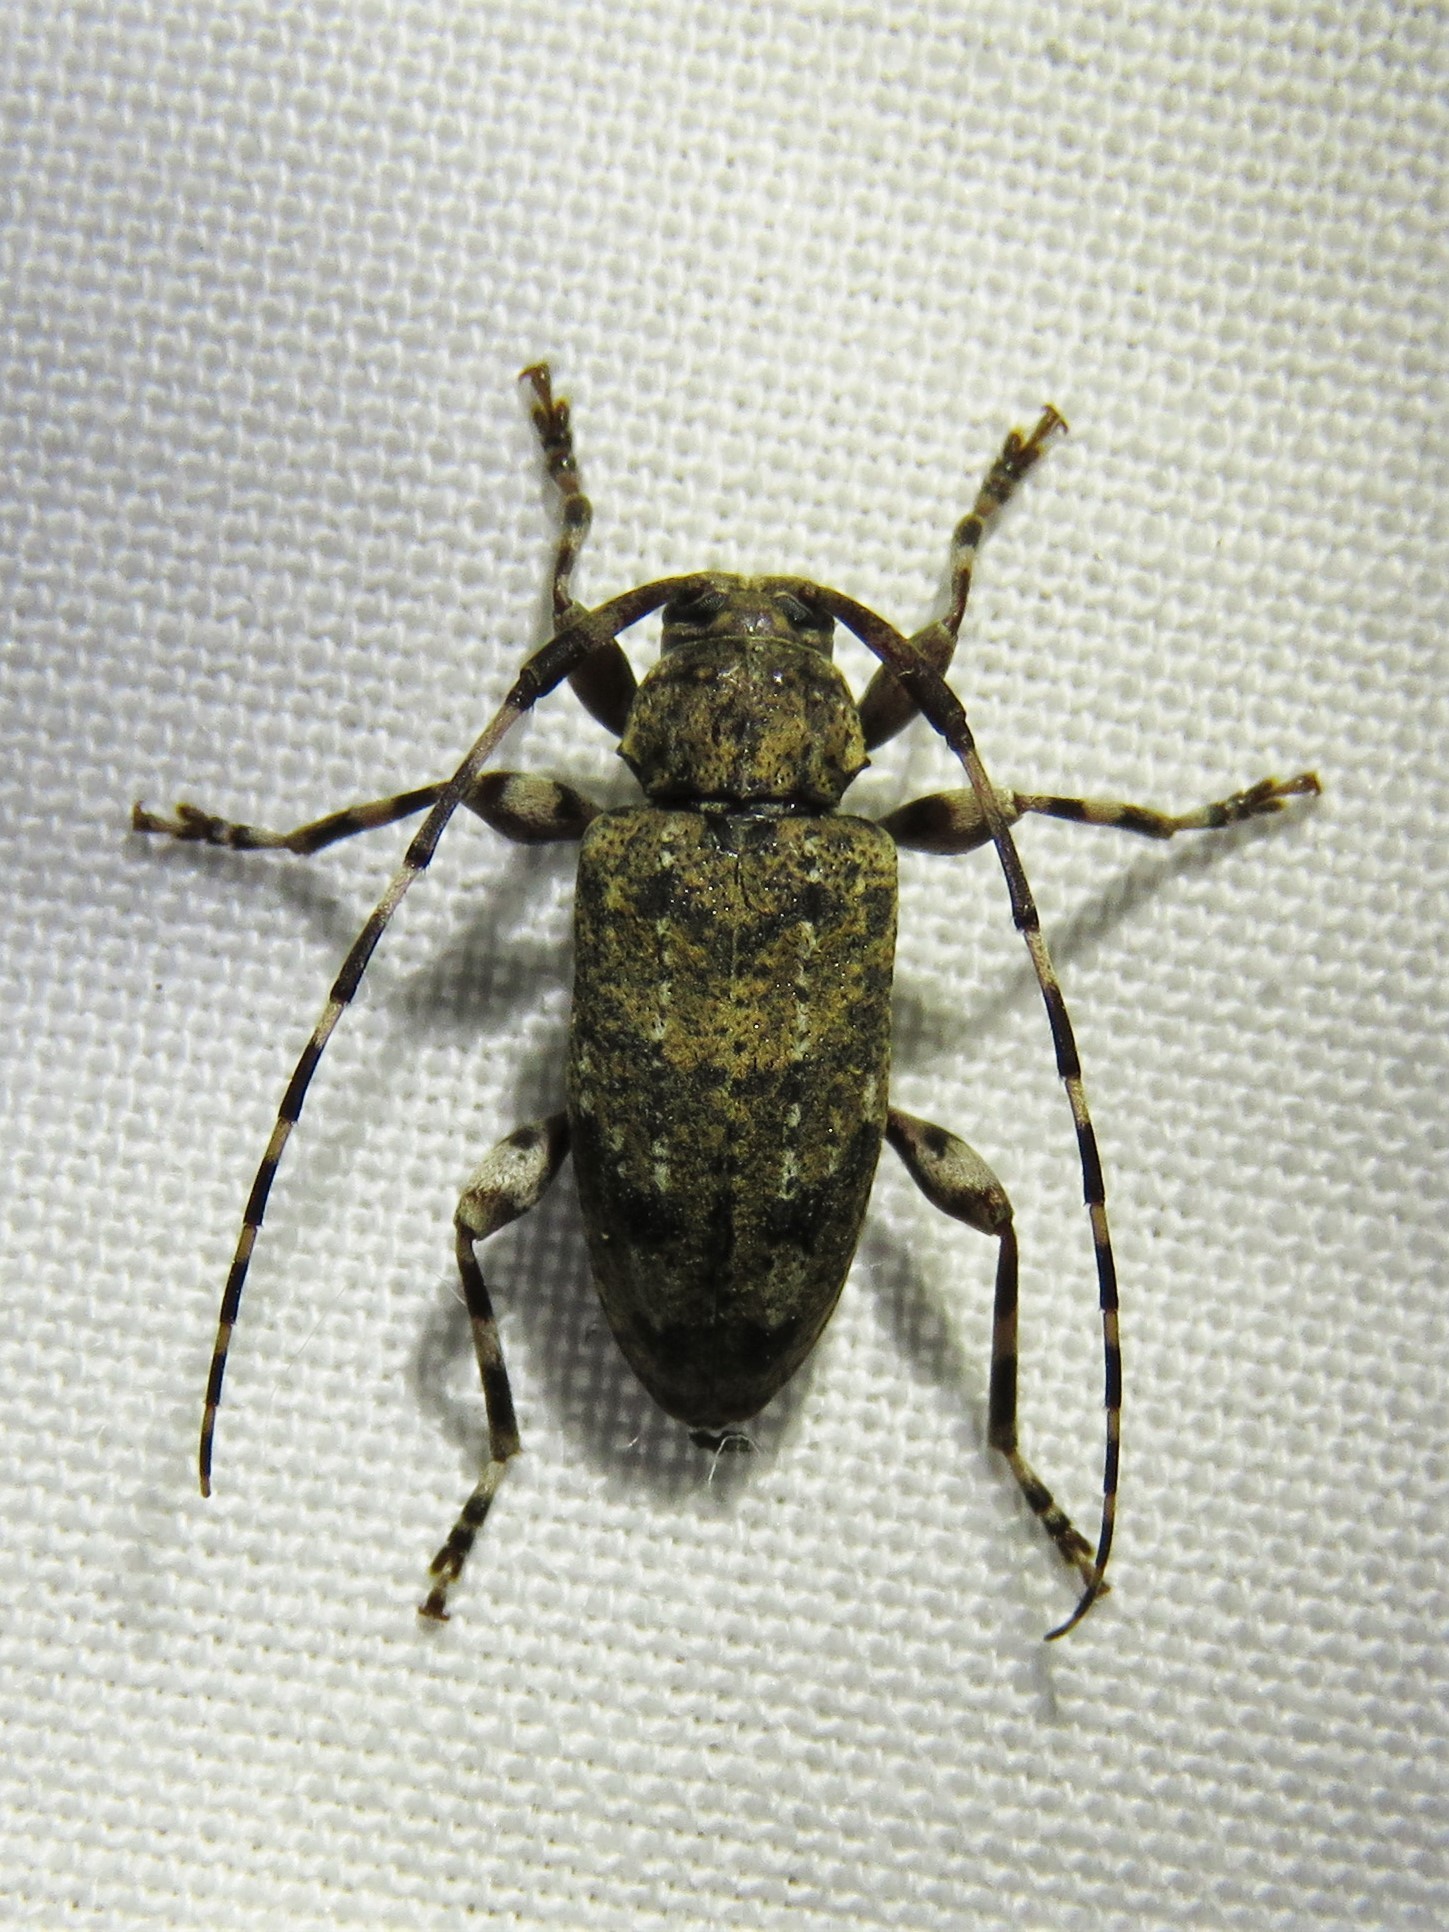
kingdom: Animalia
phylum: Arthropoda
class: Insecta
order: Coleoptera
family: Cerambycidae
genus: Astyleiopus
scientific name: Astyleiopus variegatus
